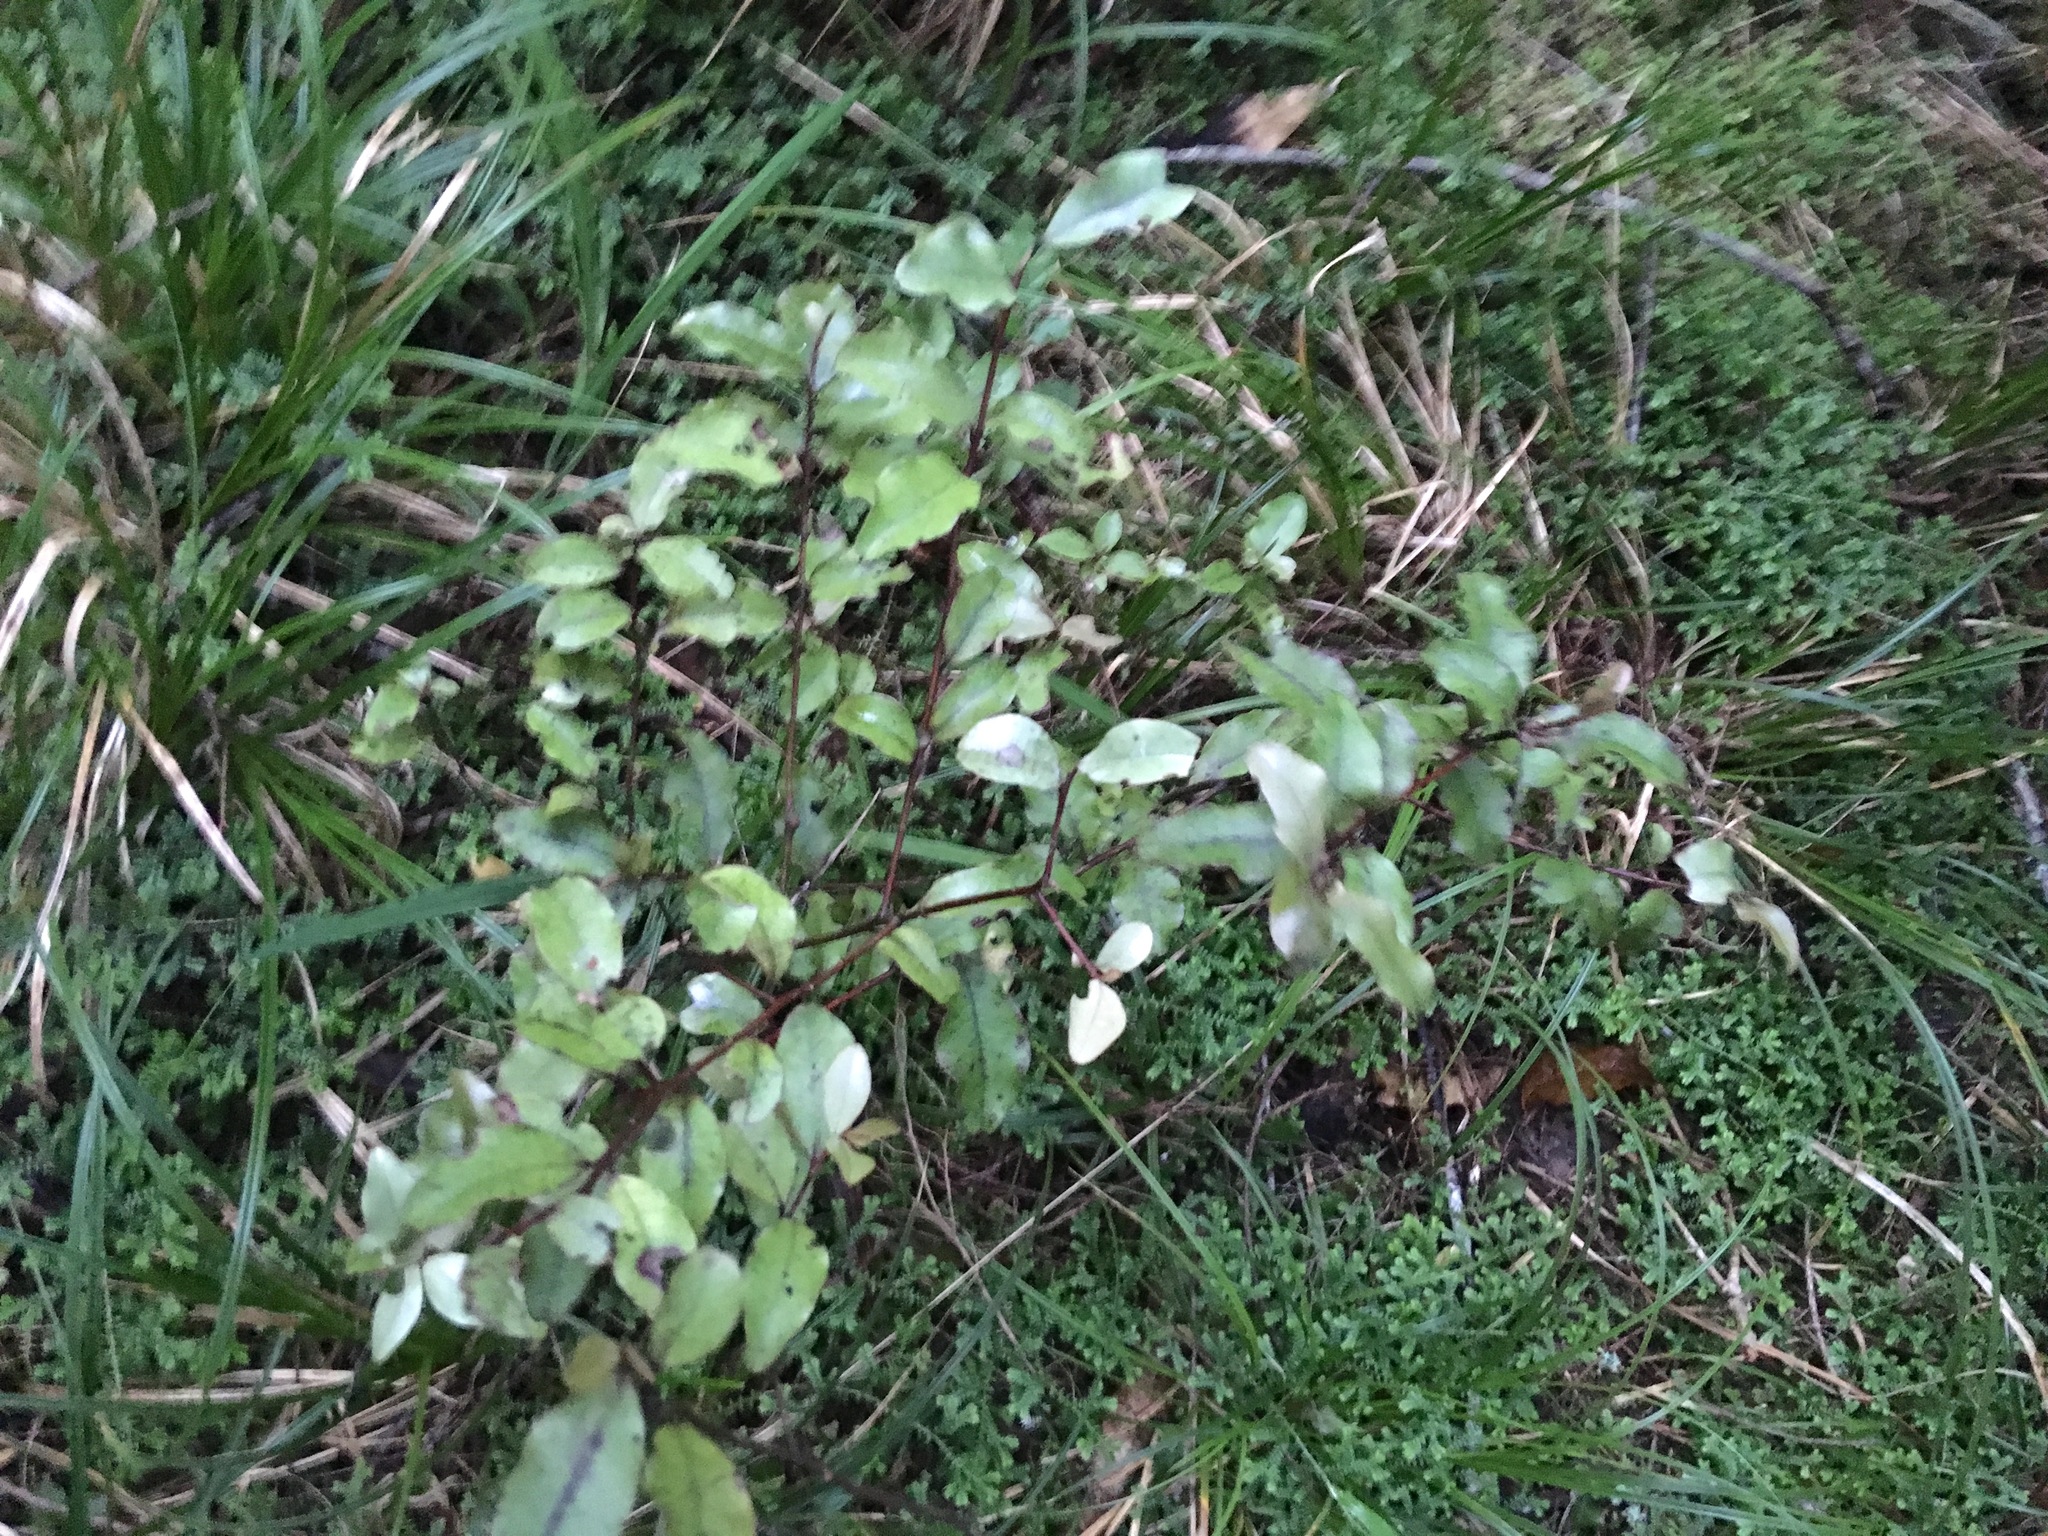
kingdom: Plantae
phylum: Tracheophyta
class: Magnoliopsida
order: Ericales
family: Primulaceae
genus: Myrsine
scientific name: Myrsine australis
